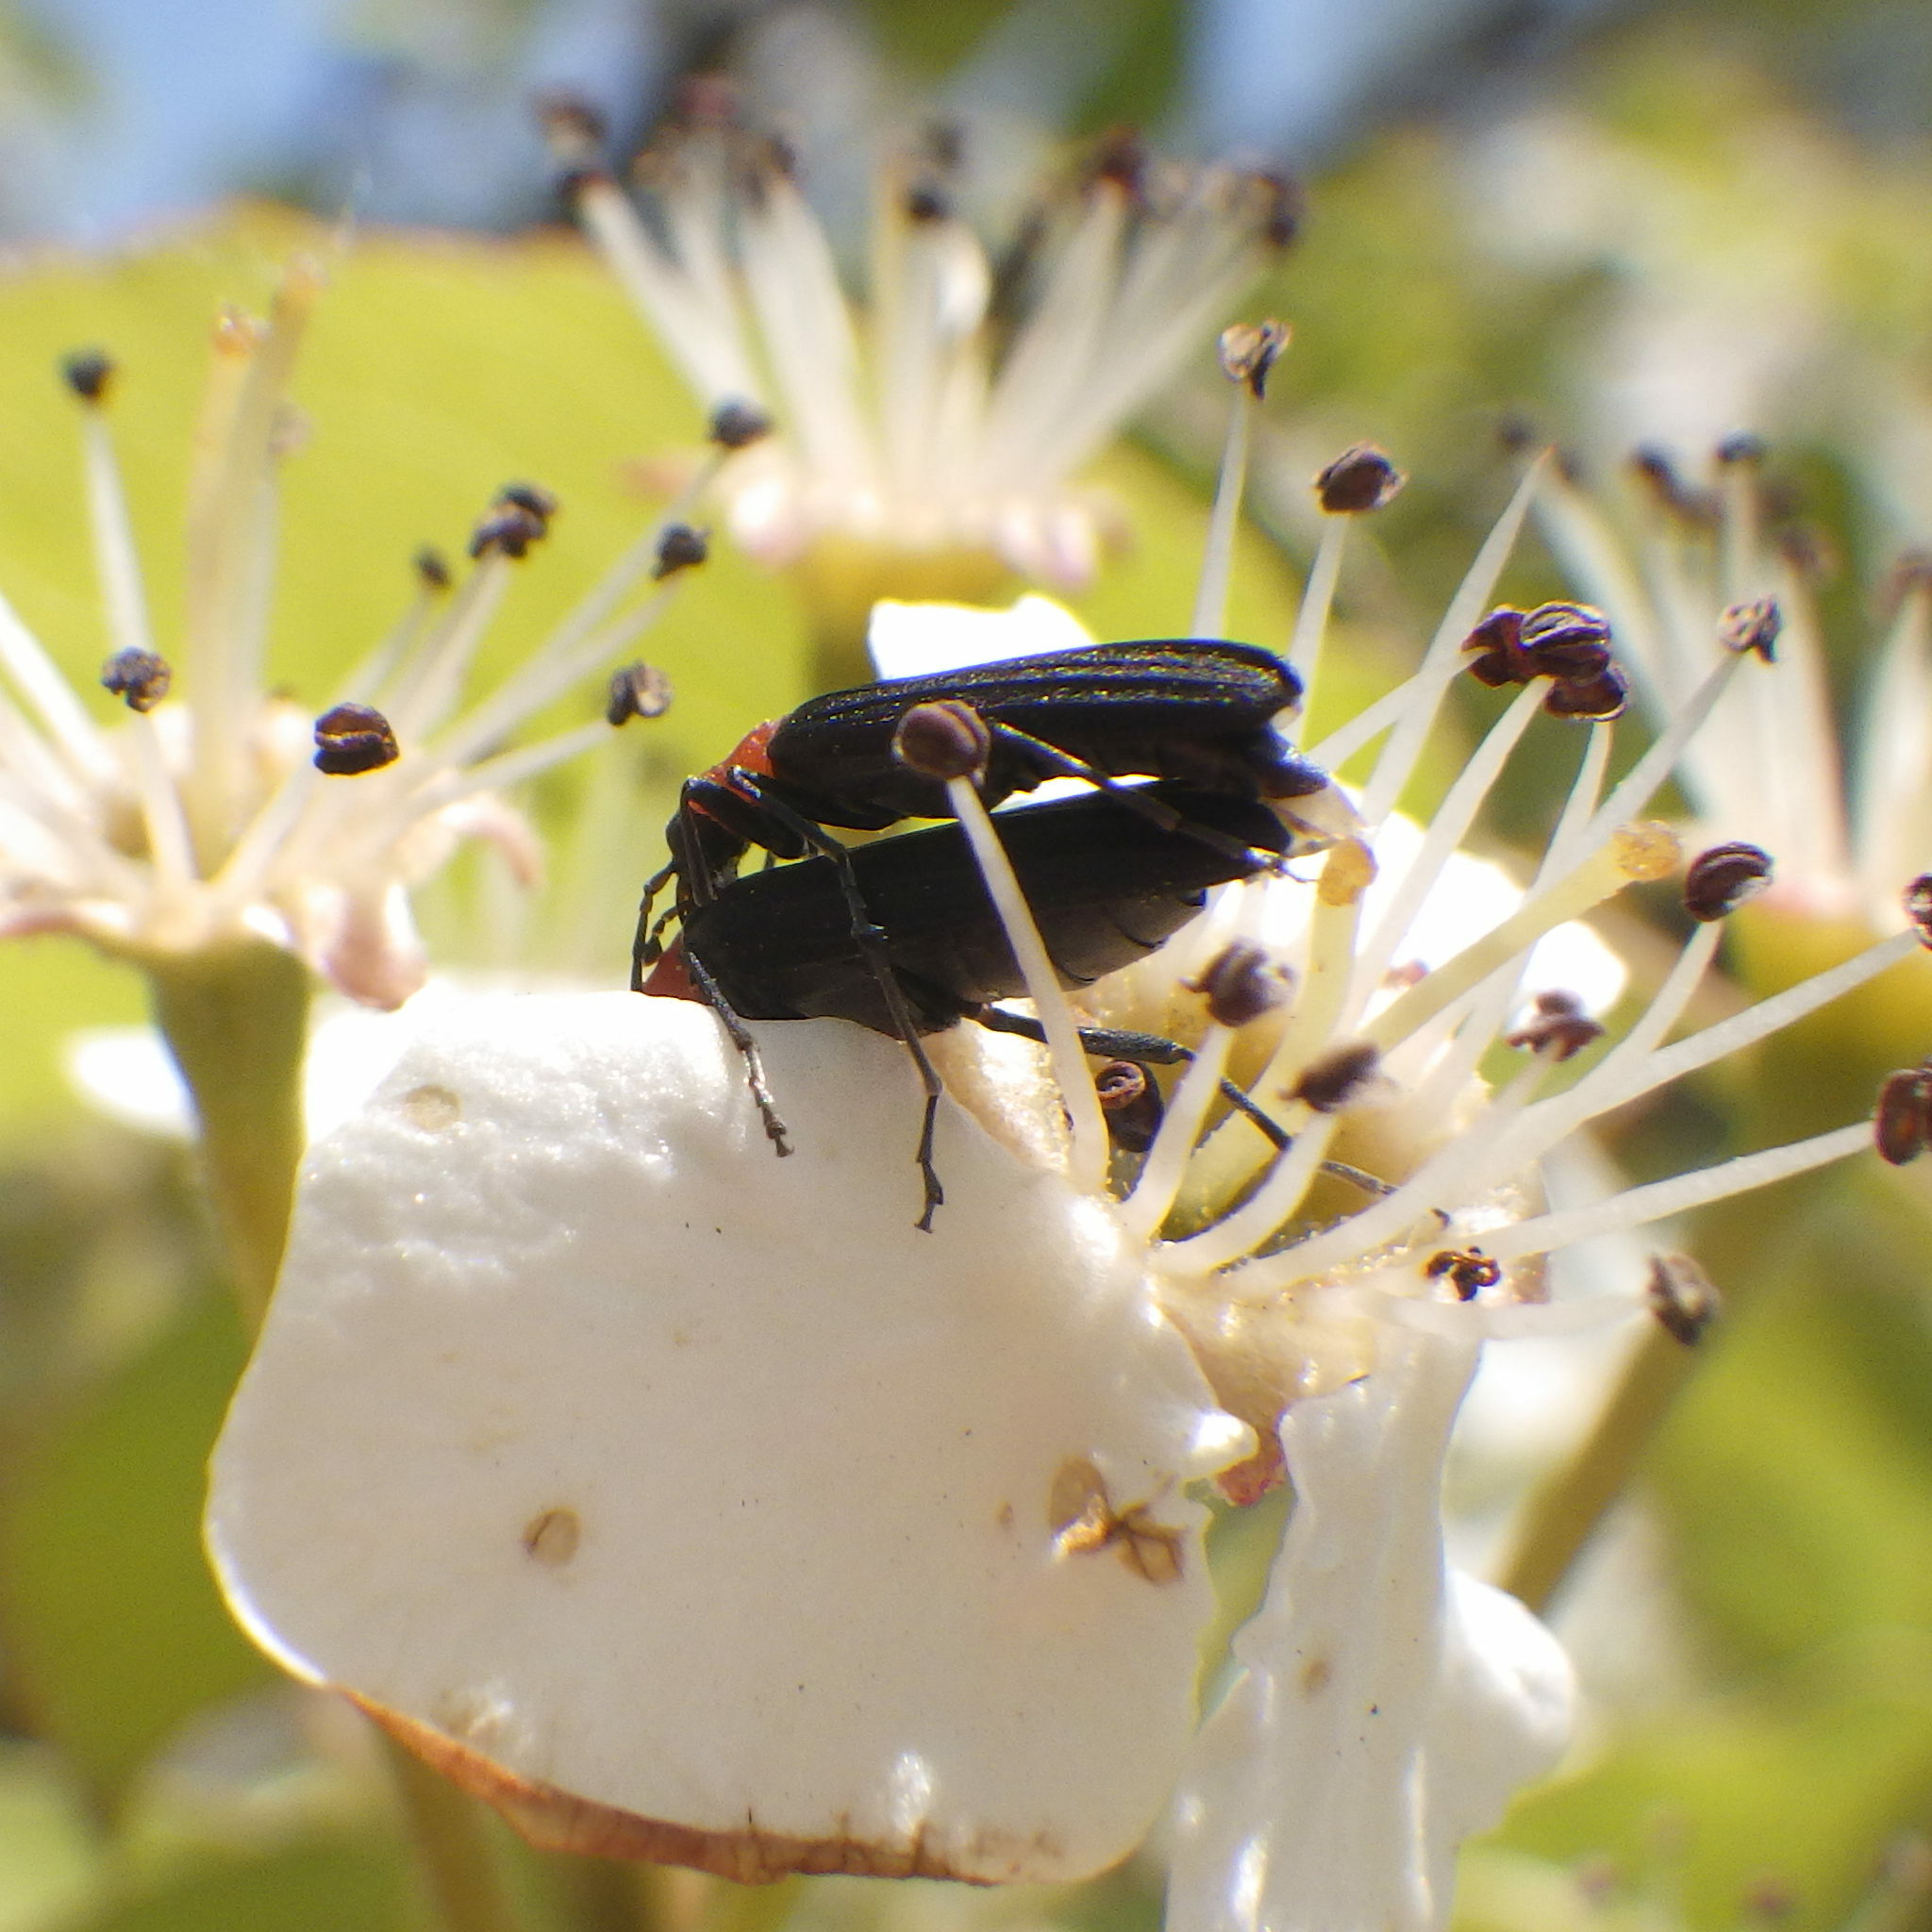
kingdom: Animalia
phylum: Arthropoda
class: Insecta
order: Coleoptera
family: Oedemeridae
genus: Ischnomera
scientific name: Ischnomera
